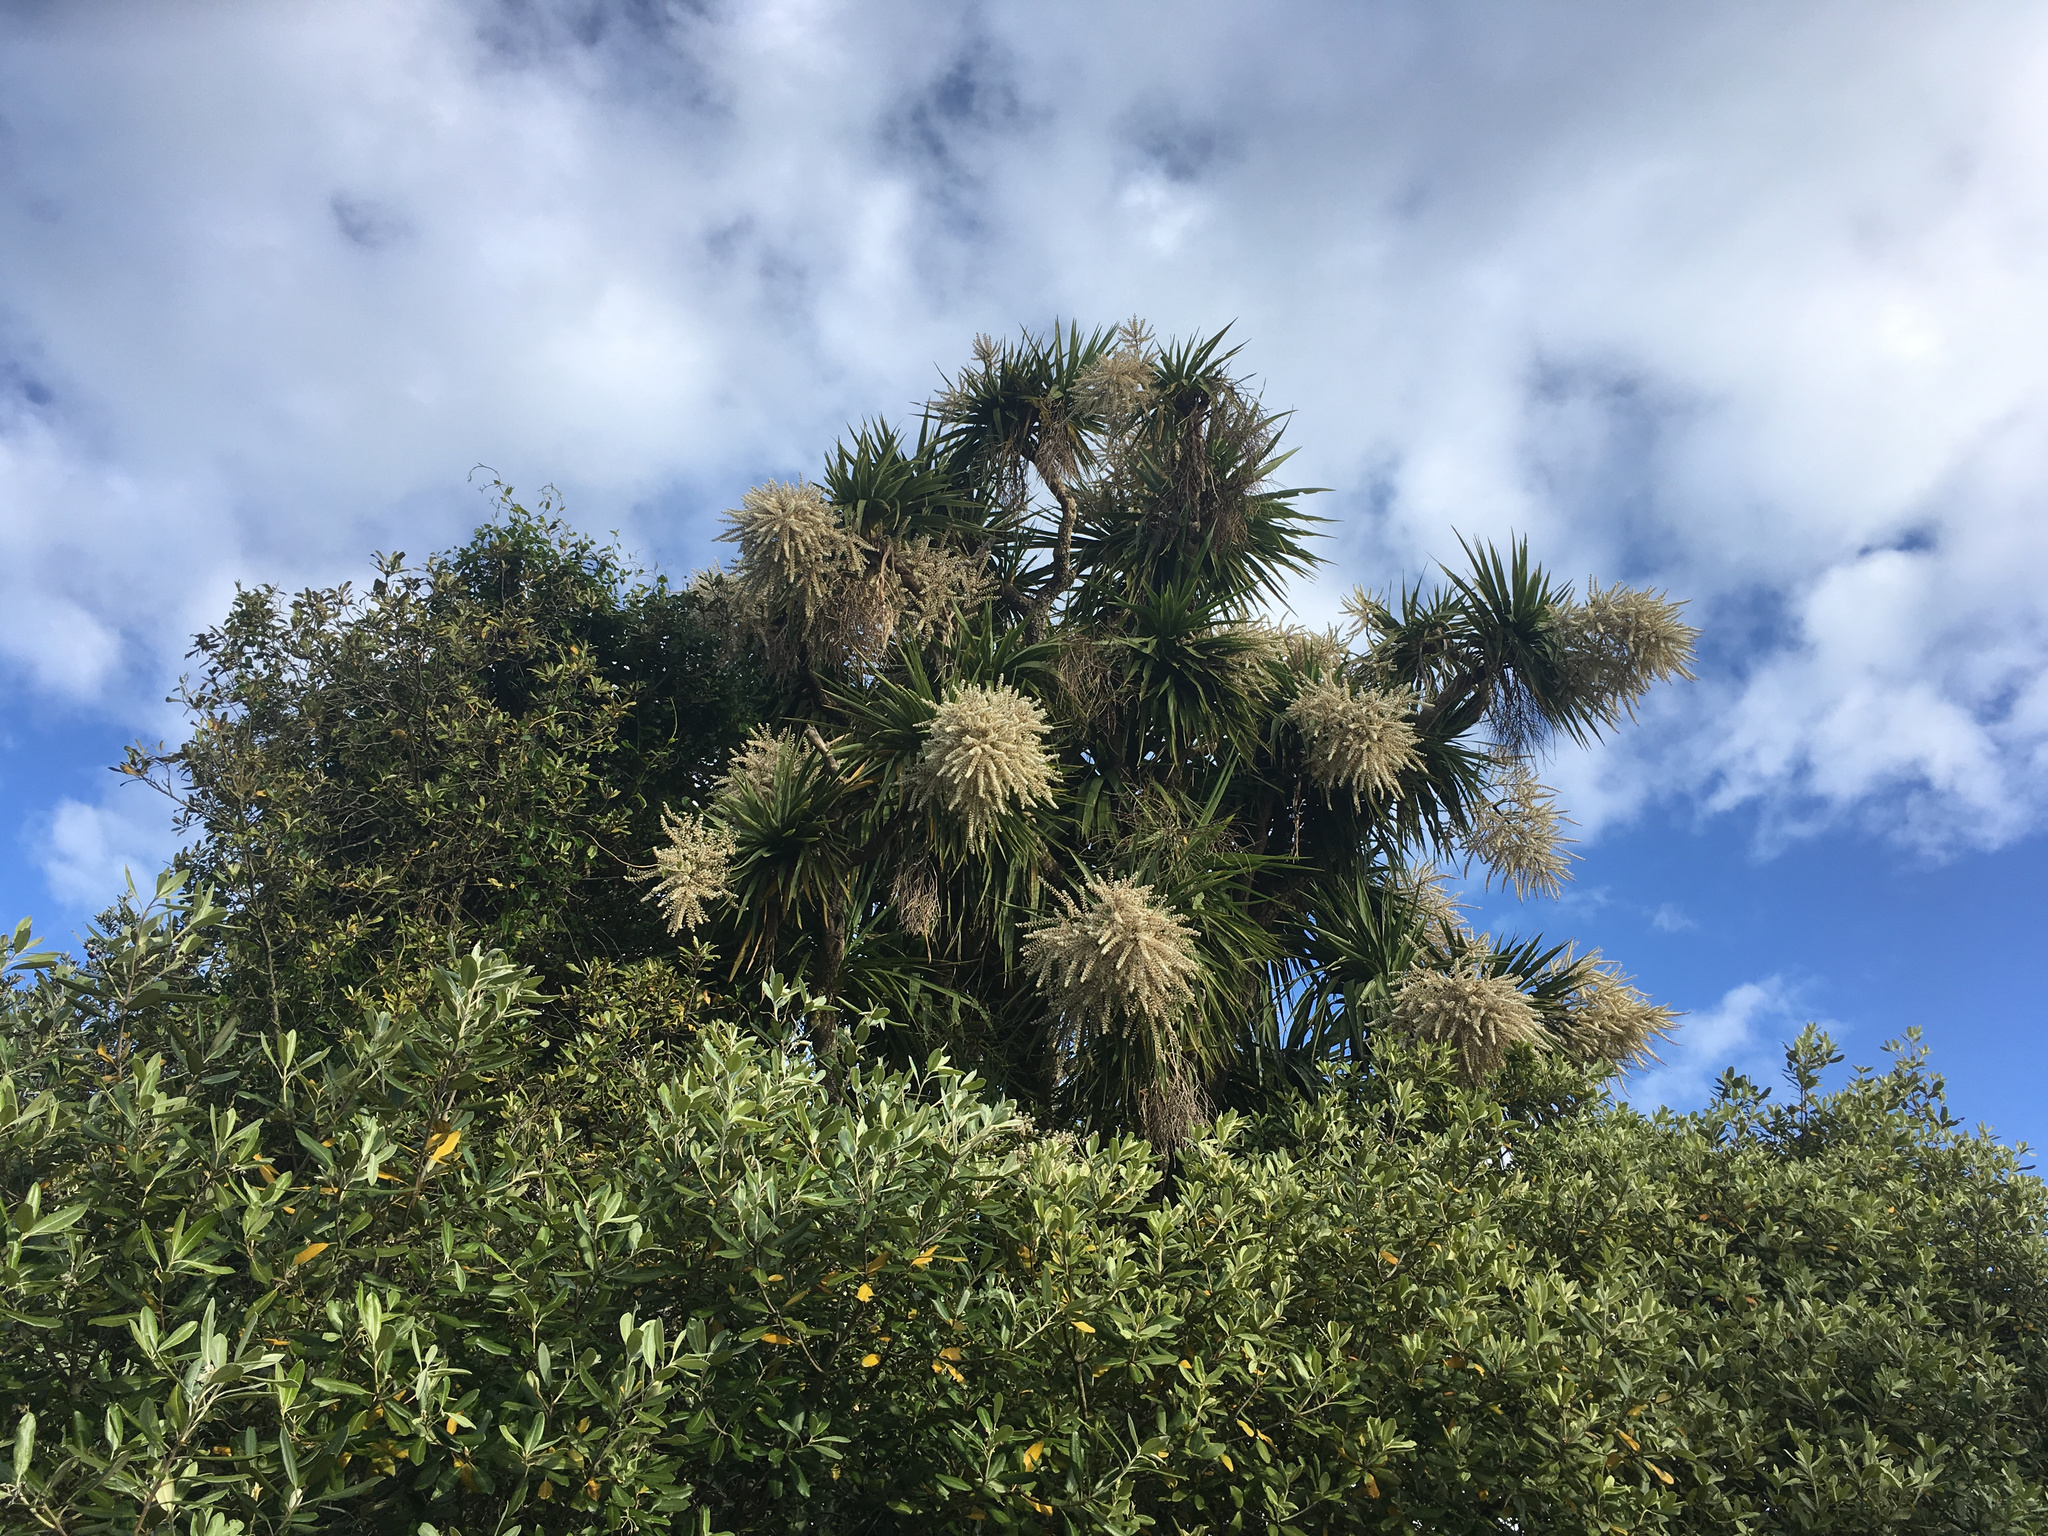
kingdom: Plantae
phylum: Tracheophyta
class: Liliopsida
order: Asparagales
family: Asparagaceae
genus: Cordyline
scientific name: Cordyline australis
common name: Cabbage-palm
